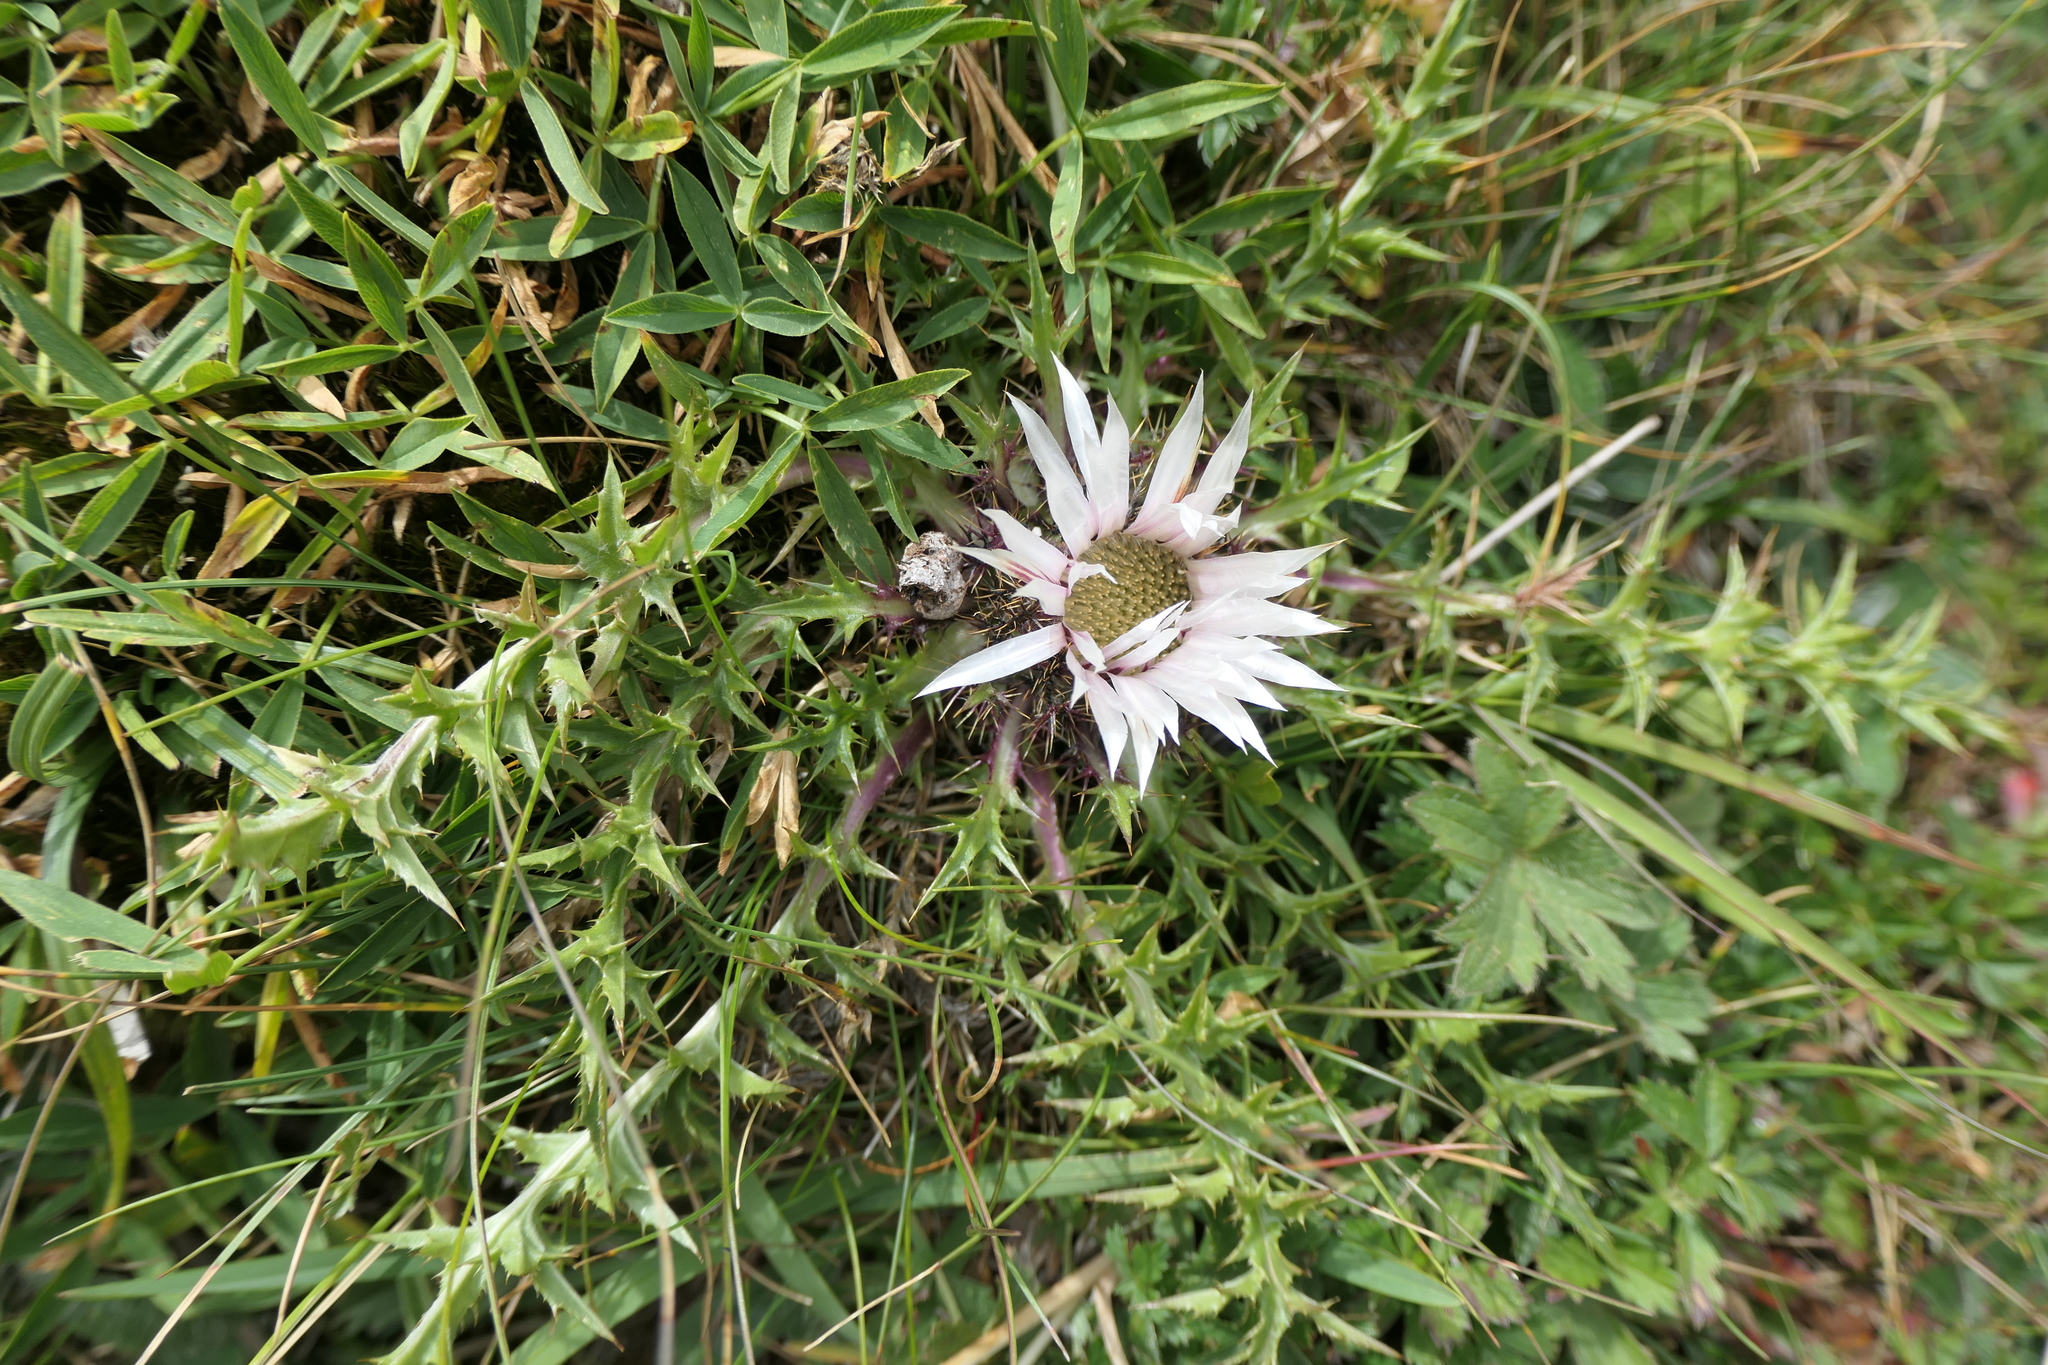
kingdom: Plantae
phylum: Tracheophyta
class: Magnoliopsida
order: Asterales
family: Asteraceae
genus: Carlina
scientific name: Carlina acaulis
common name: Stemless carline thistle
